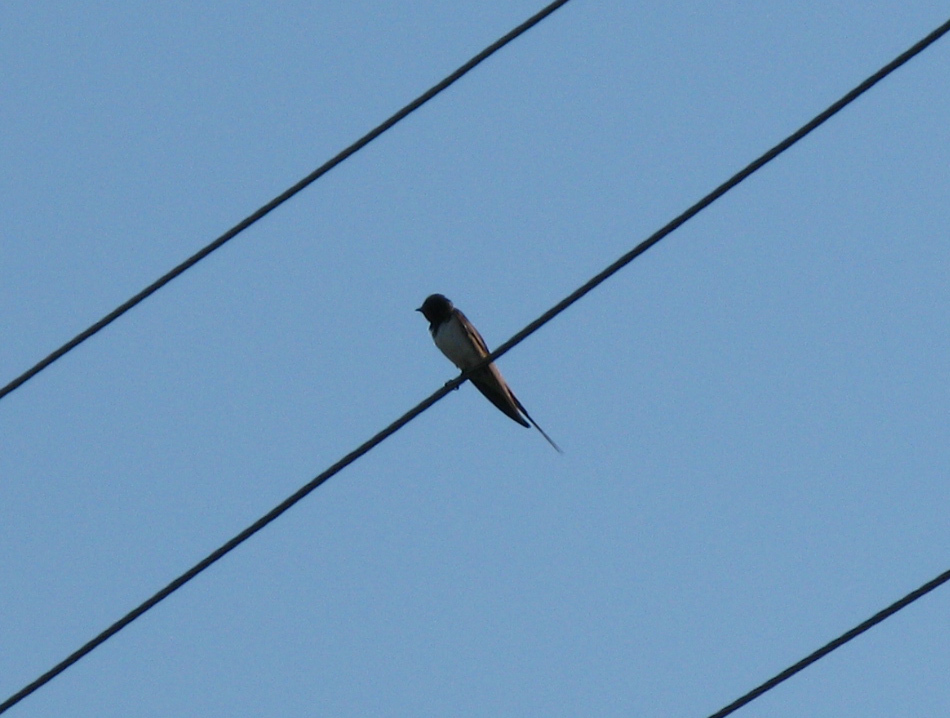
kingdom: Animalia
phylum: Chordata
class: Aves
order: Passeriformes
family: Hirundinidae
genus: Hirundo
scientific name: Hirundo rustica
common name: Barn swallow
